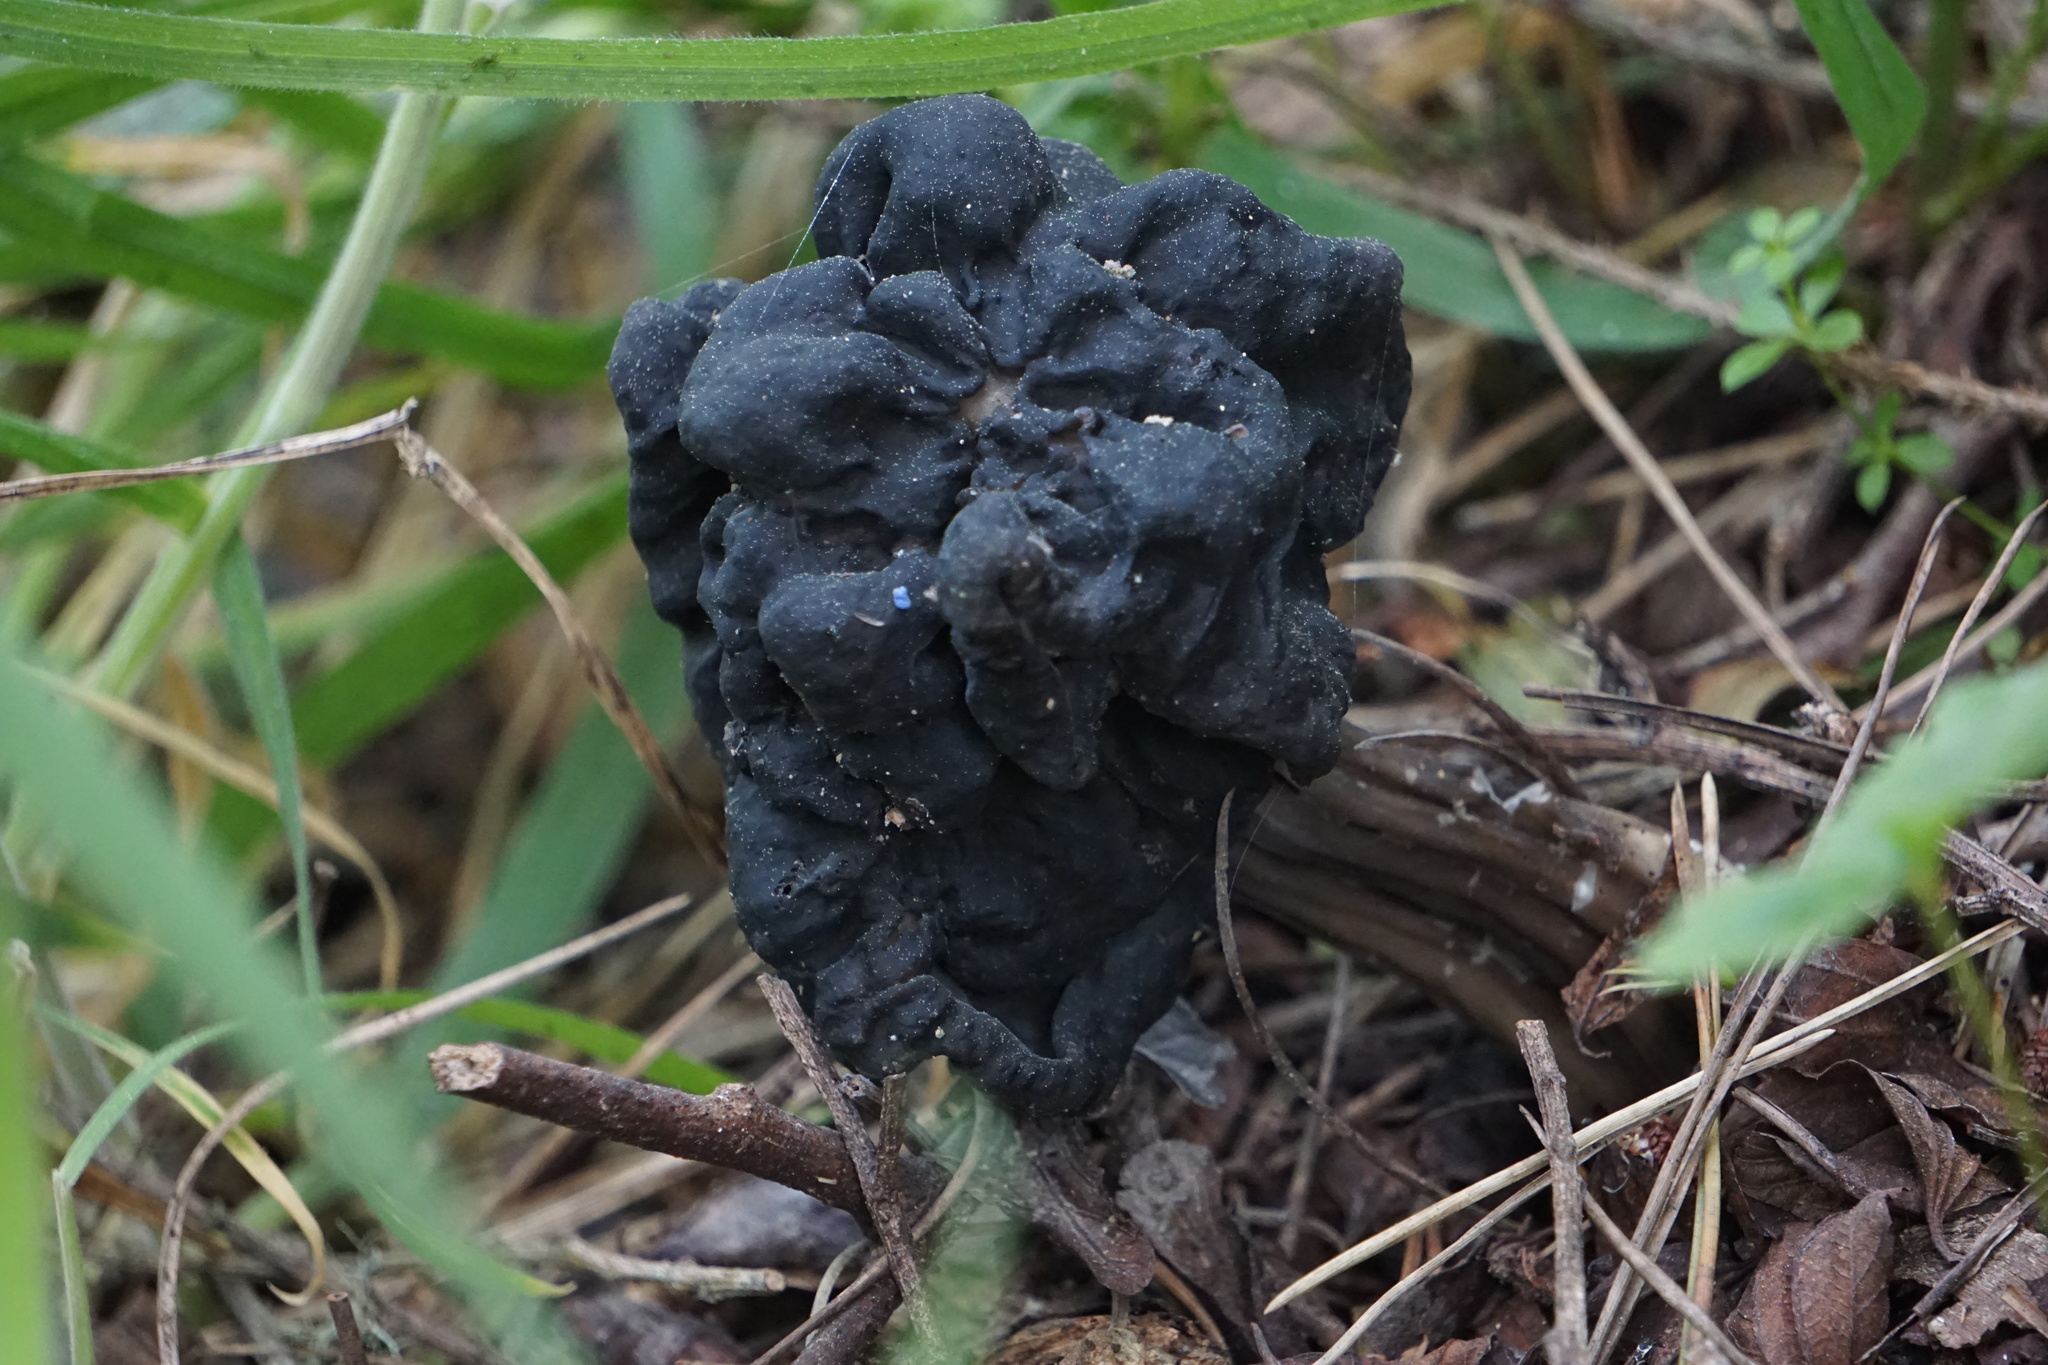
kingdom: Fungi
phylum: Ascomycota
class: Pezizomycetes
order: Pezizales
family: Helvellaceae
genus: Helvella
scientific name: Helvella
